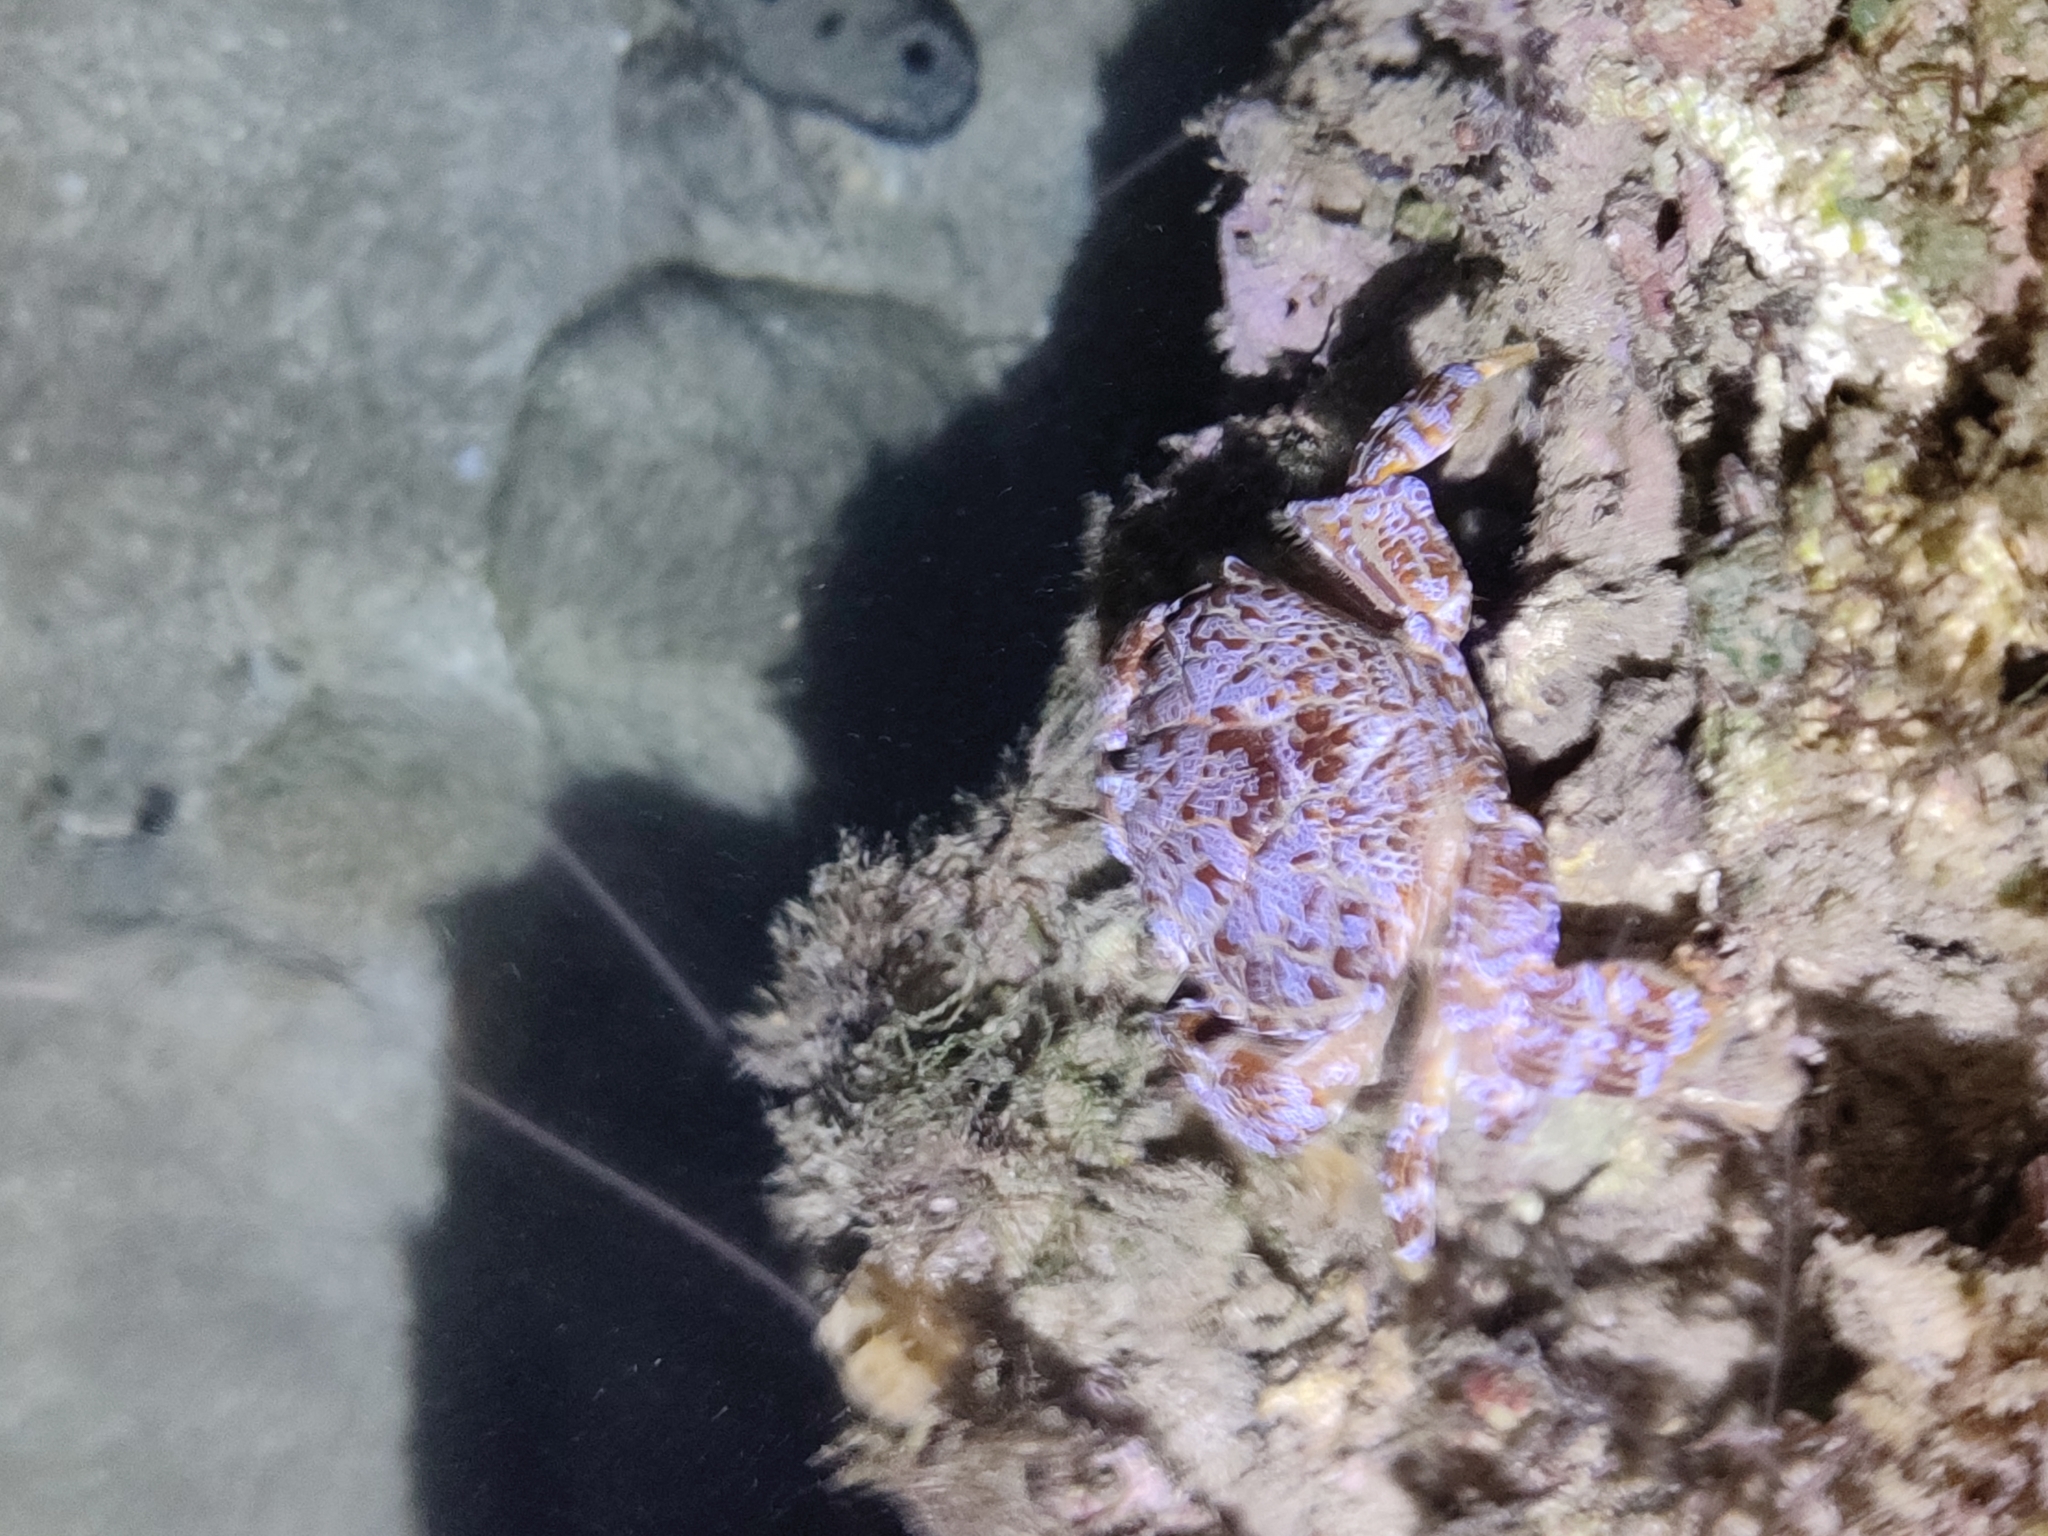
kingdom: Animalia
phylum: Arthropoda
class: Malacostraca
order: Decapoda
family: Xanthidae
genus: Zosimus
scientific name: Zosimus aeneus
